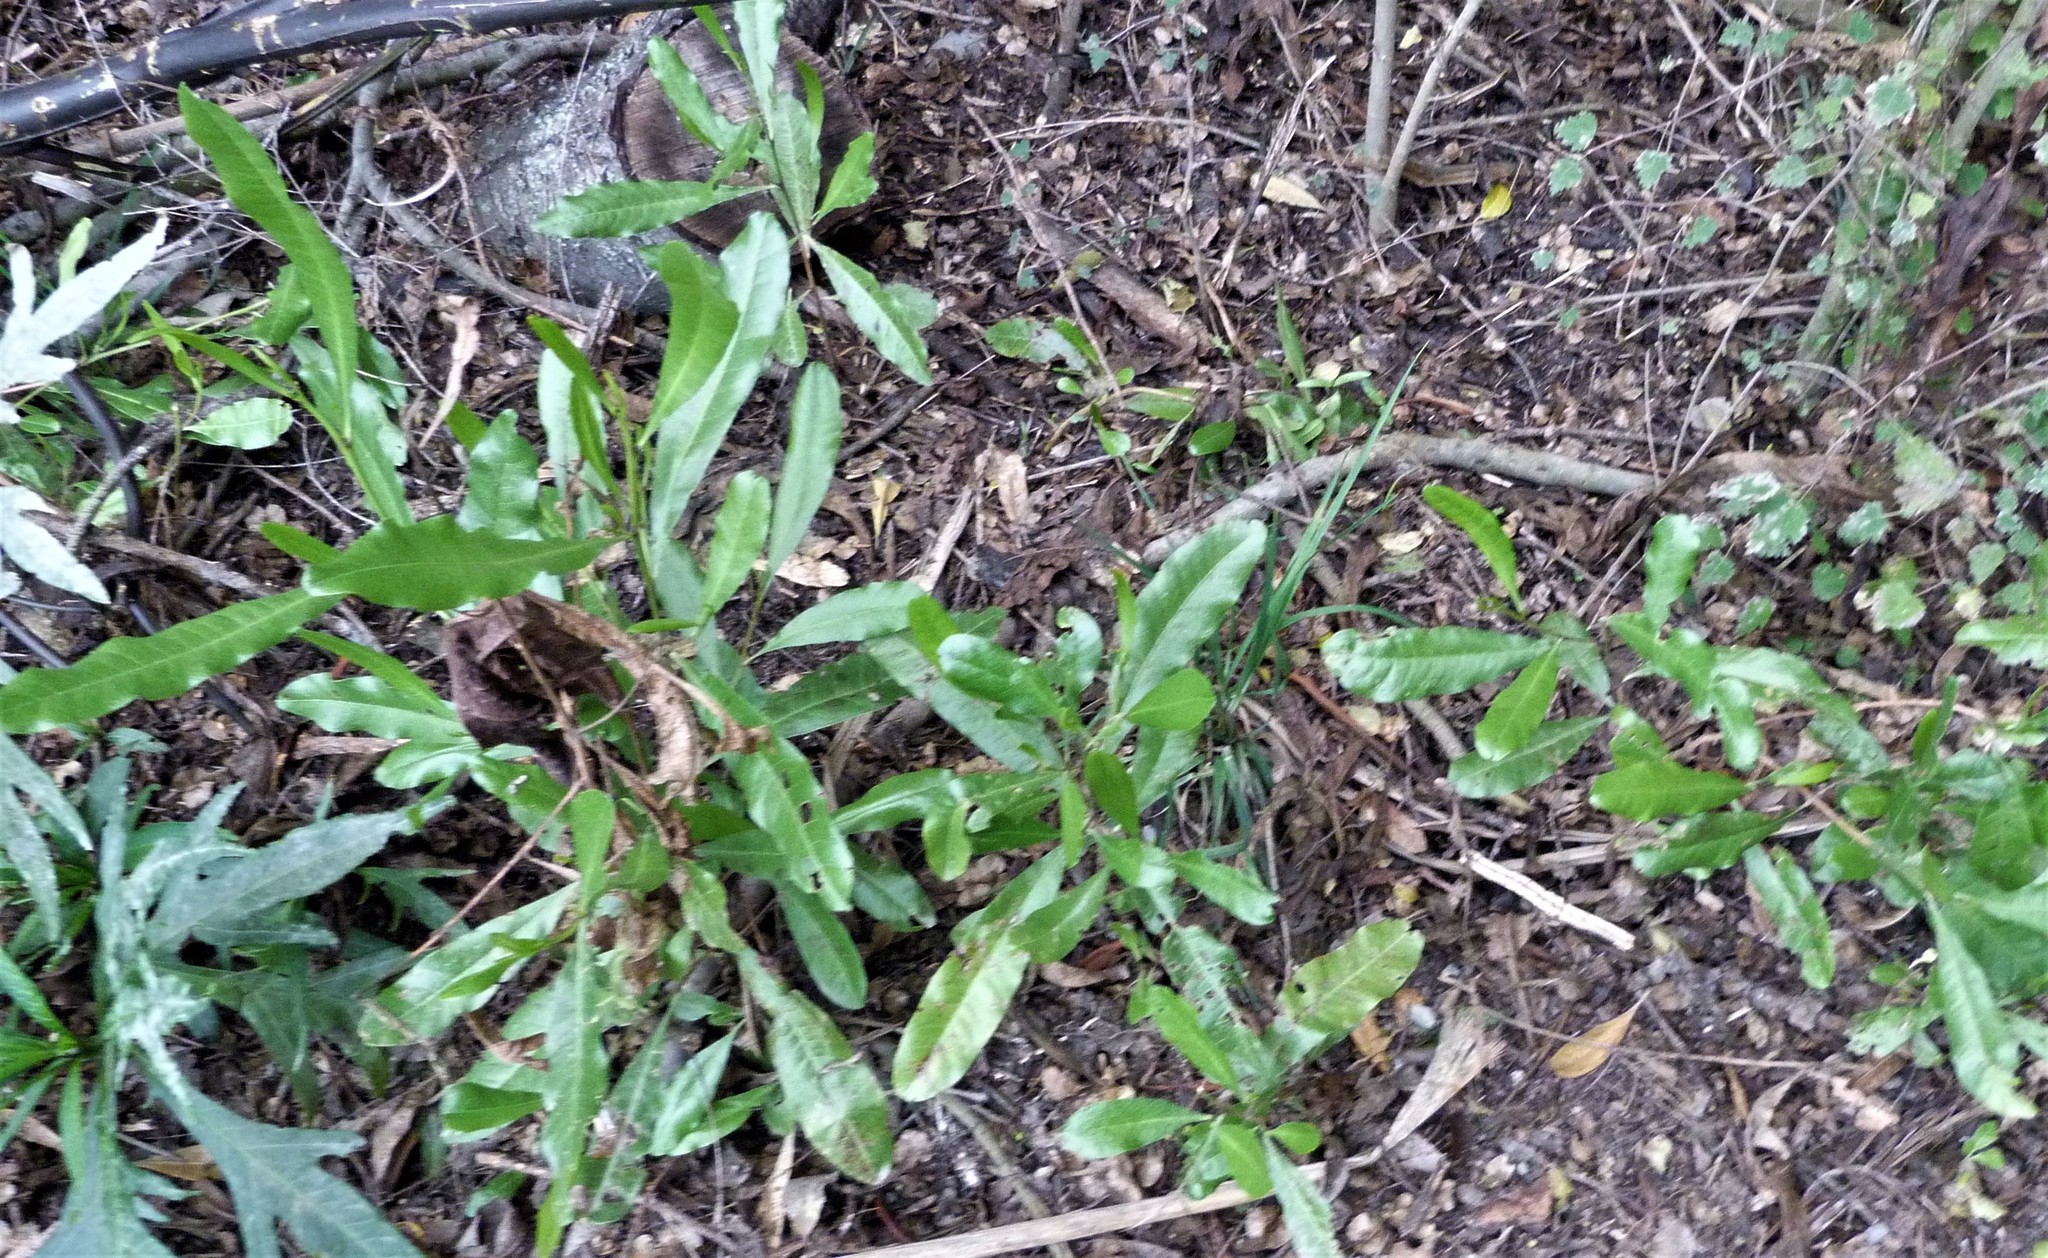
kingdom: Plantae
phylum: Tracheophyta
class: Magnoliopsida
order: Sapindales
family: Sapindaceae
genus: Dodonaea
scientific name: Dodonaea viscosa
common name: Hopbush
